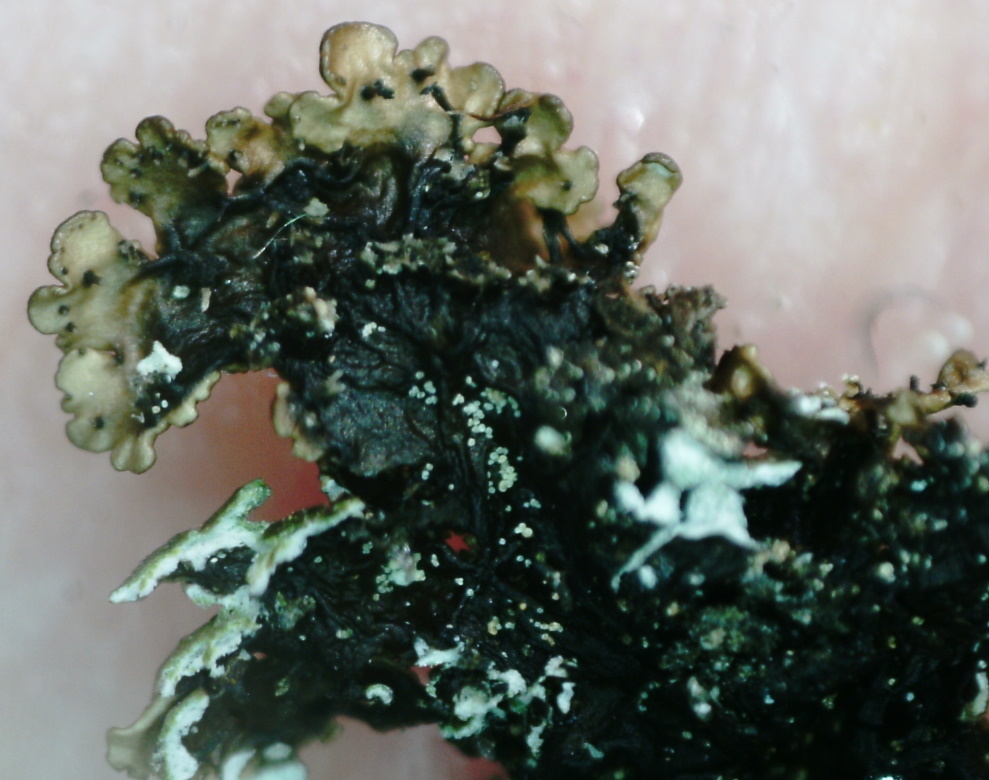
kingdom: Fungi
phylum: Ascomycota
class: Lecanoromycetes
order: Lecanorales
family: Parmeliaceae
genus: Montanelia
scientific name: Montanelia panniformis
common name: Shingled camouflage lichen
